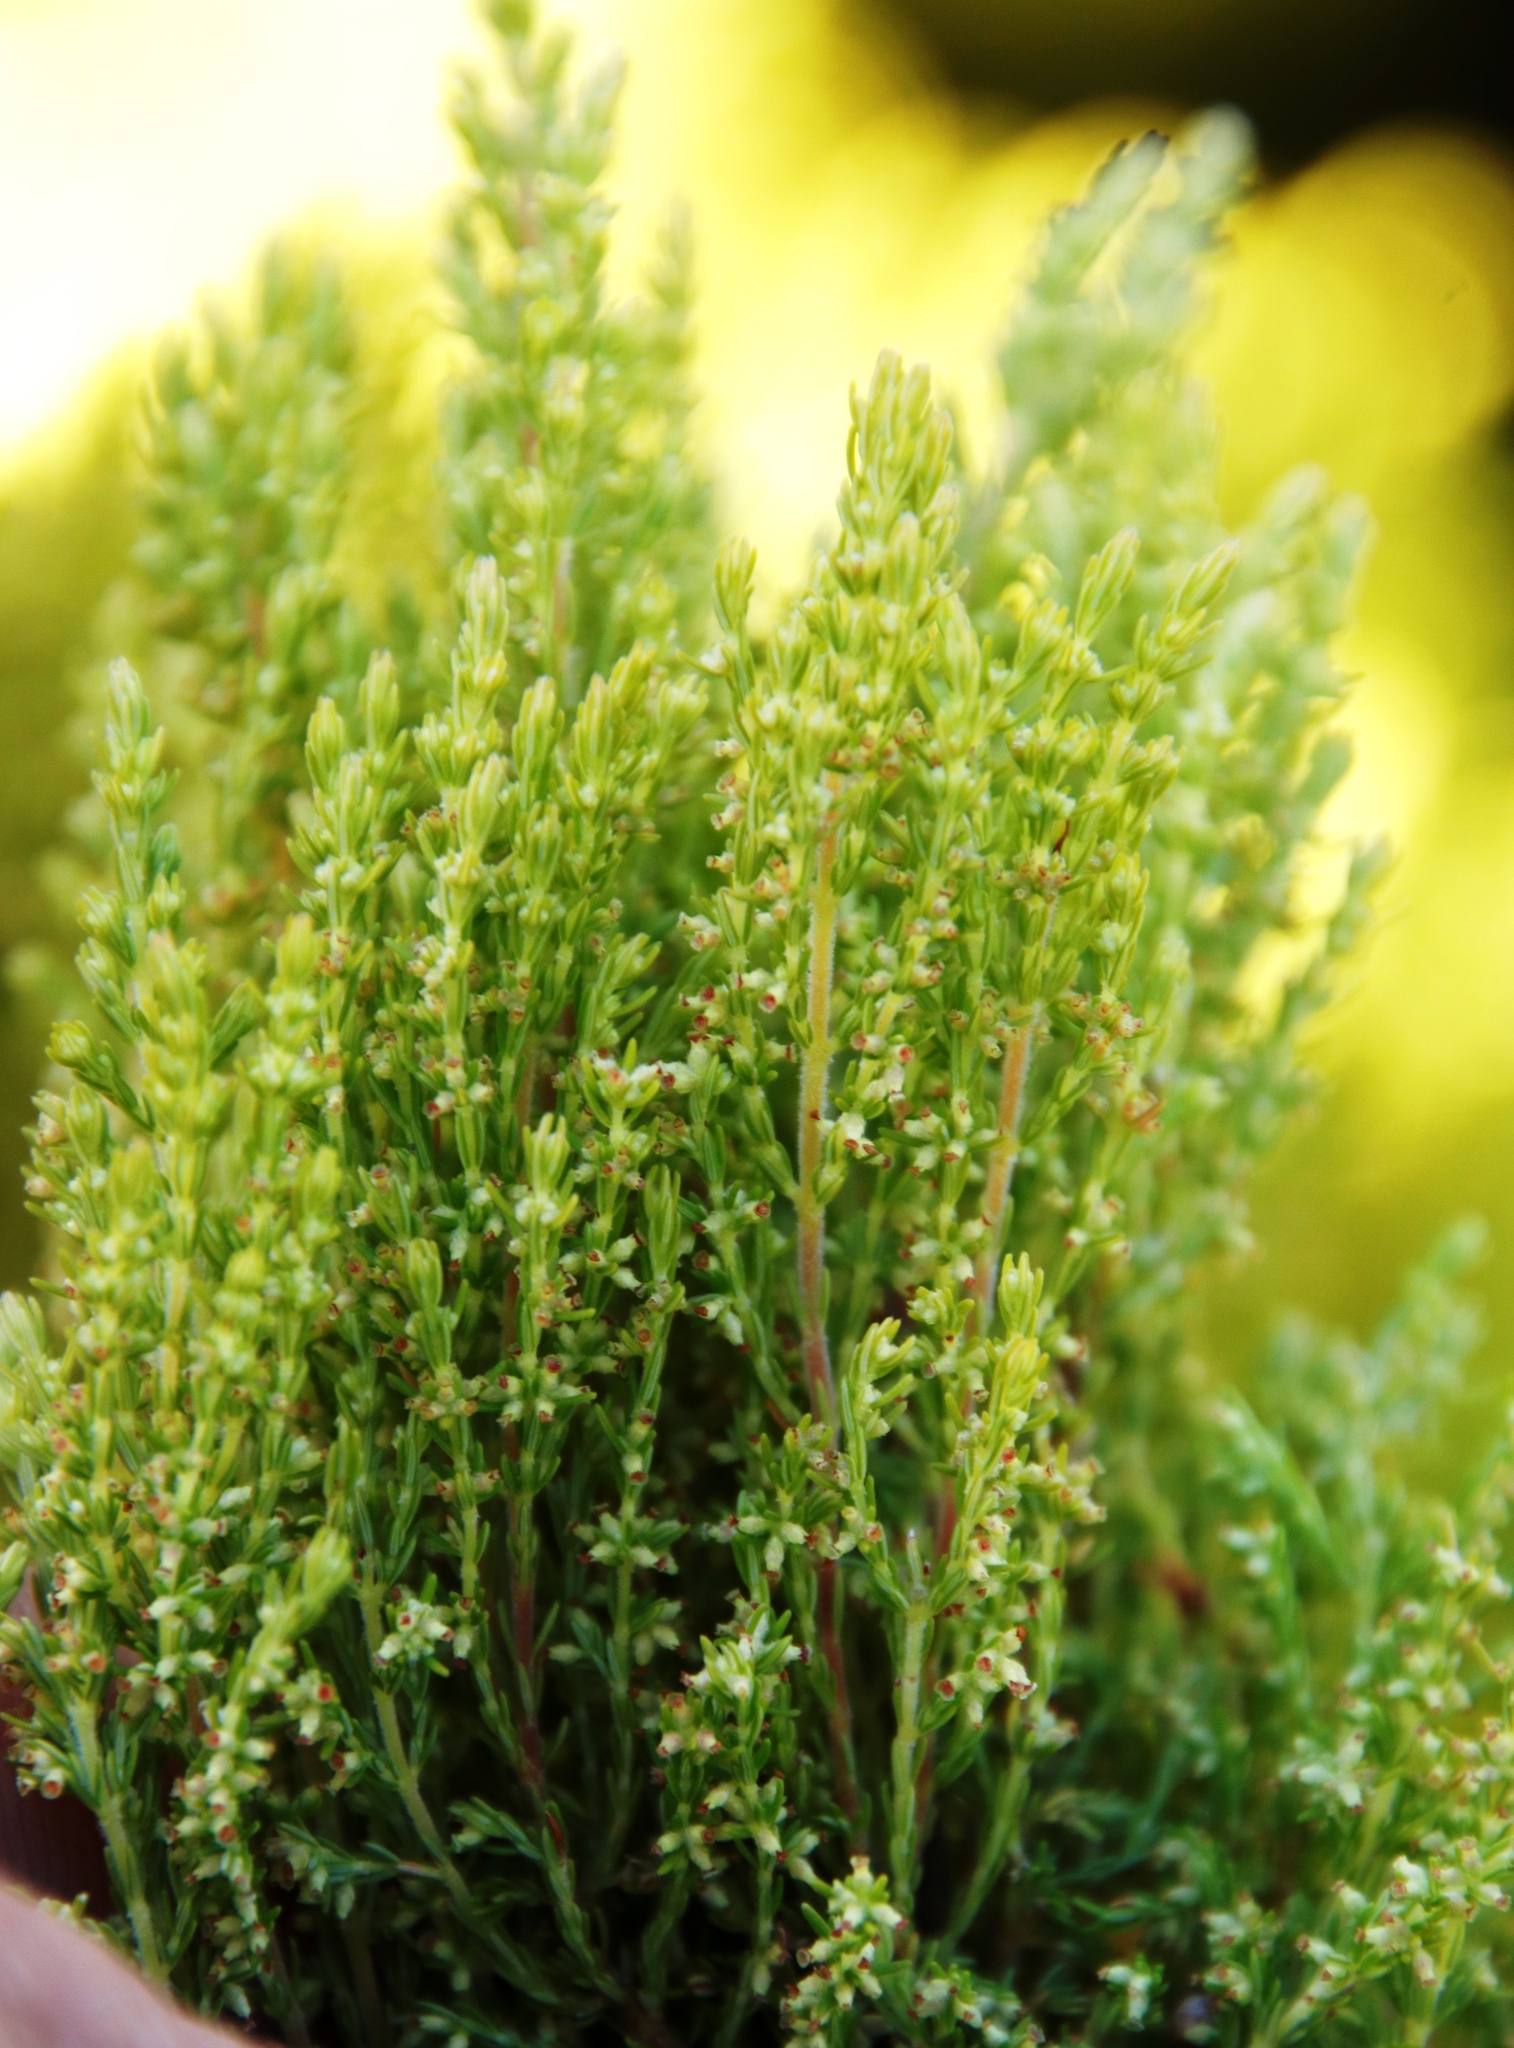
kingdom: Plantae
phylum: Tracheophyta
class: Magnoliopsida
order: Ericales
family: Ericaceae
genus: Erica
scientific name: Erica urceolata
